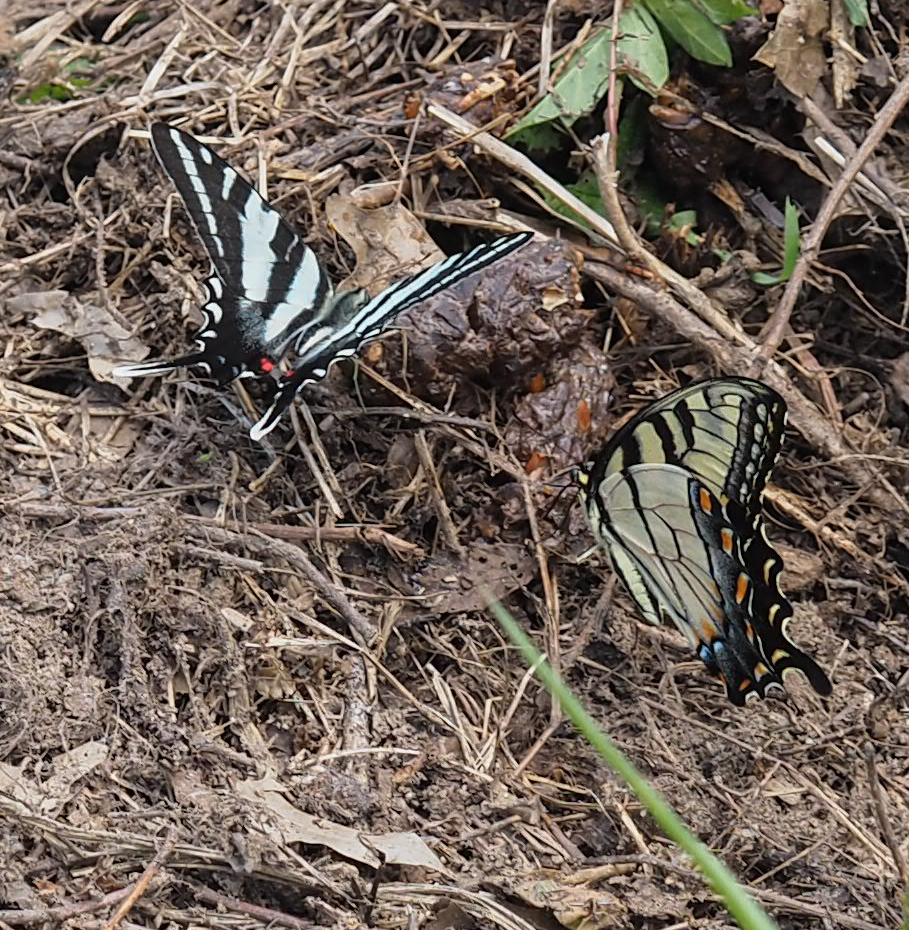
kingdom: Animalia
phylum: Arthropoda
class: Insecta
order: Lepidoptera
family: Papilionidae
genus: Papilio
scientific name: Papilio glaucus
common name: Tiger swallowtail
